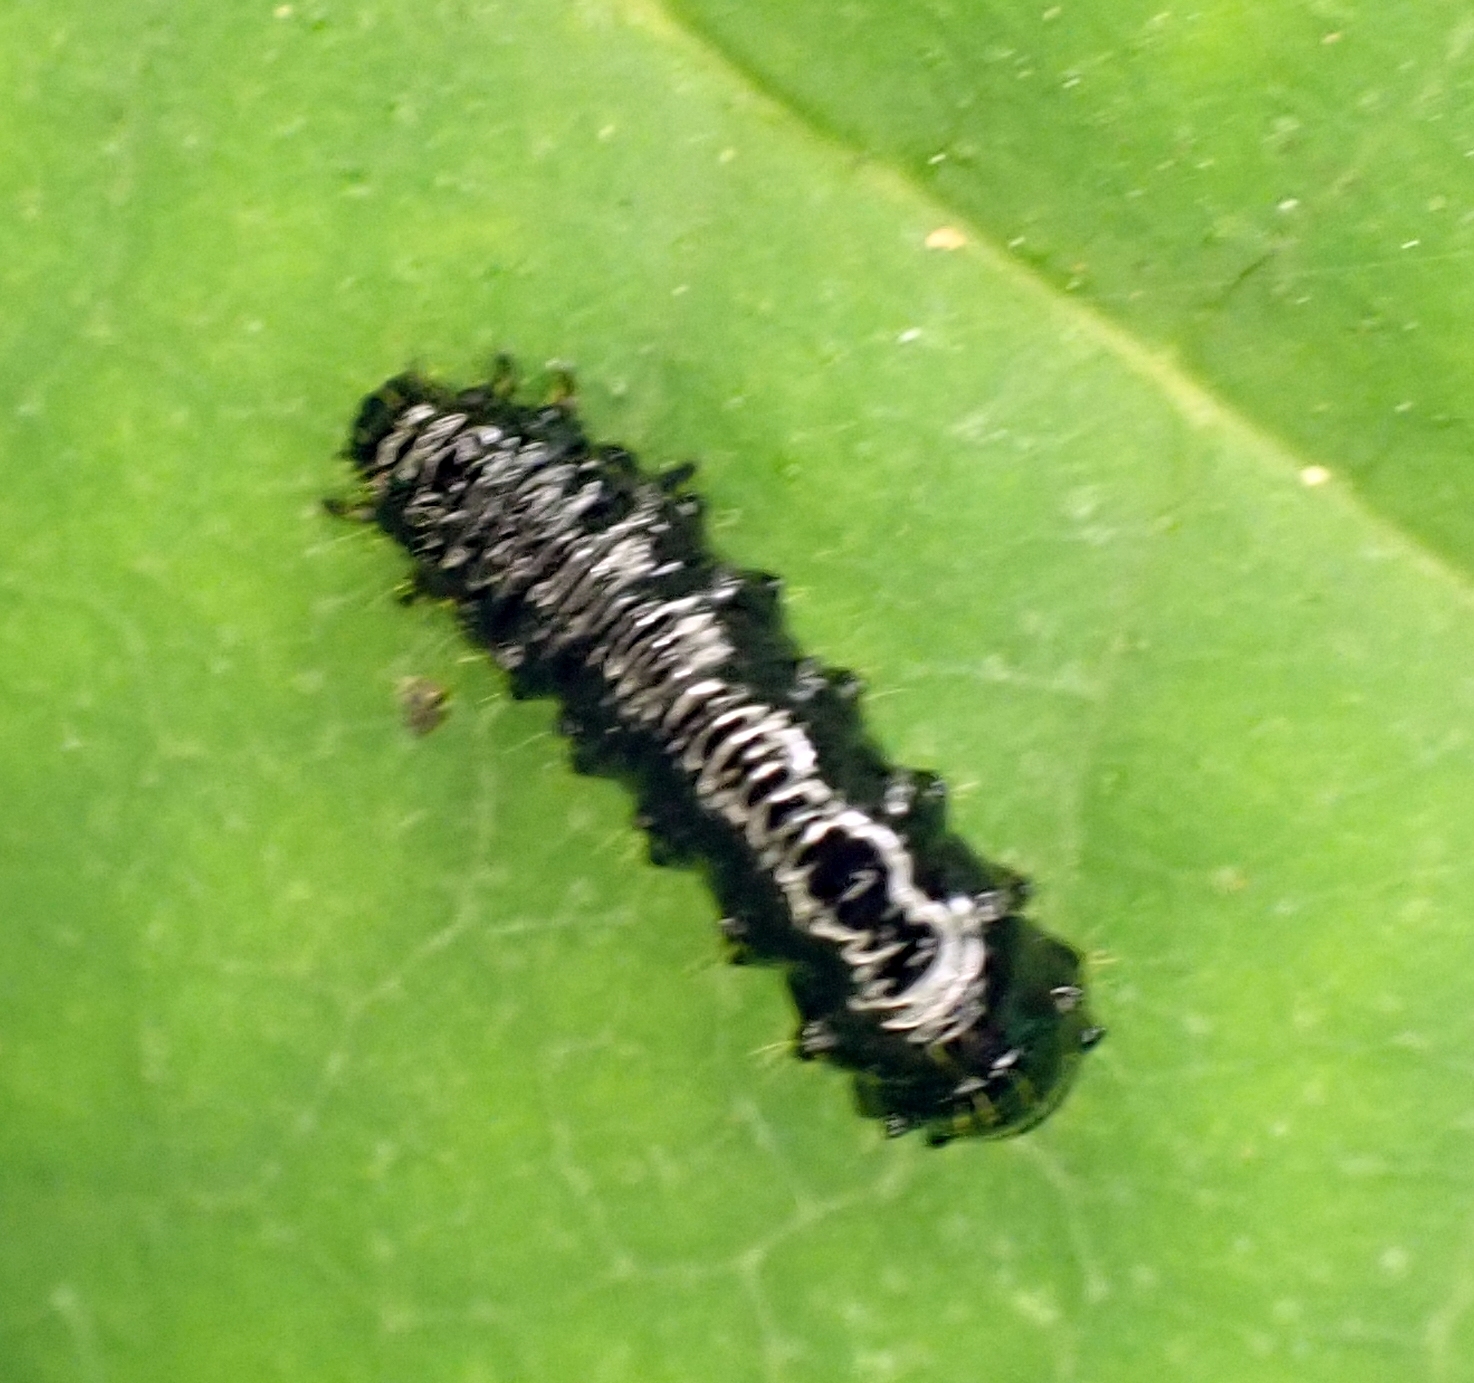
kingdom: Animalia
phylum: Arthropoda
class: Insecta
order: Coleoptera
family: Chrysomelidae
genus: Agelastica
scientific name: Agelastica alni
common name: Alder leaf beetle
